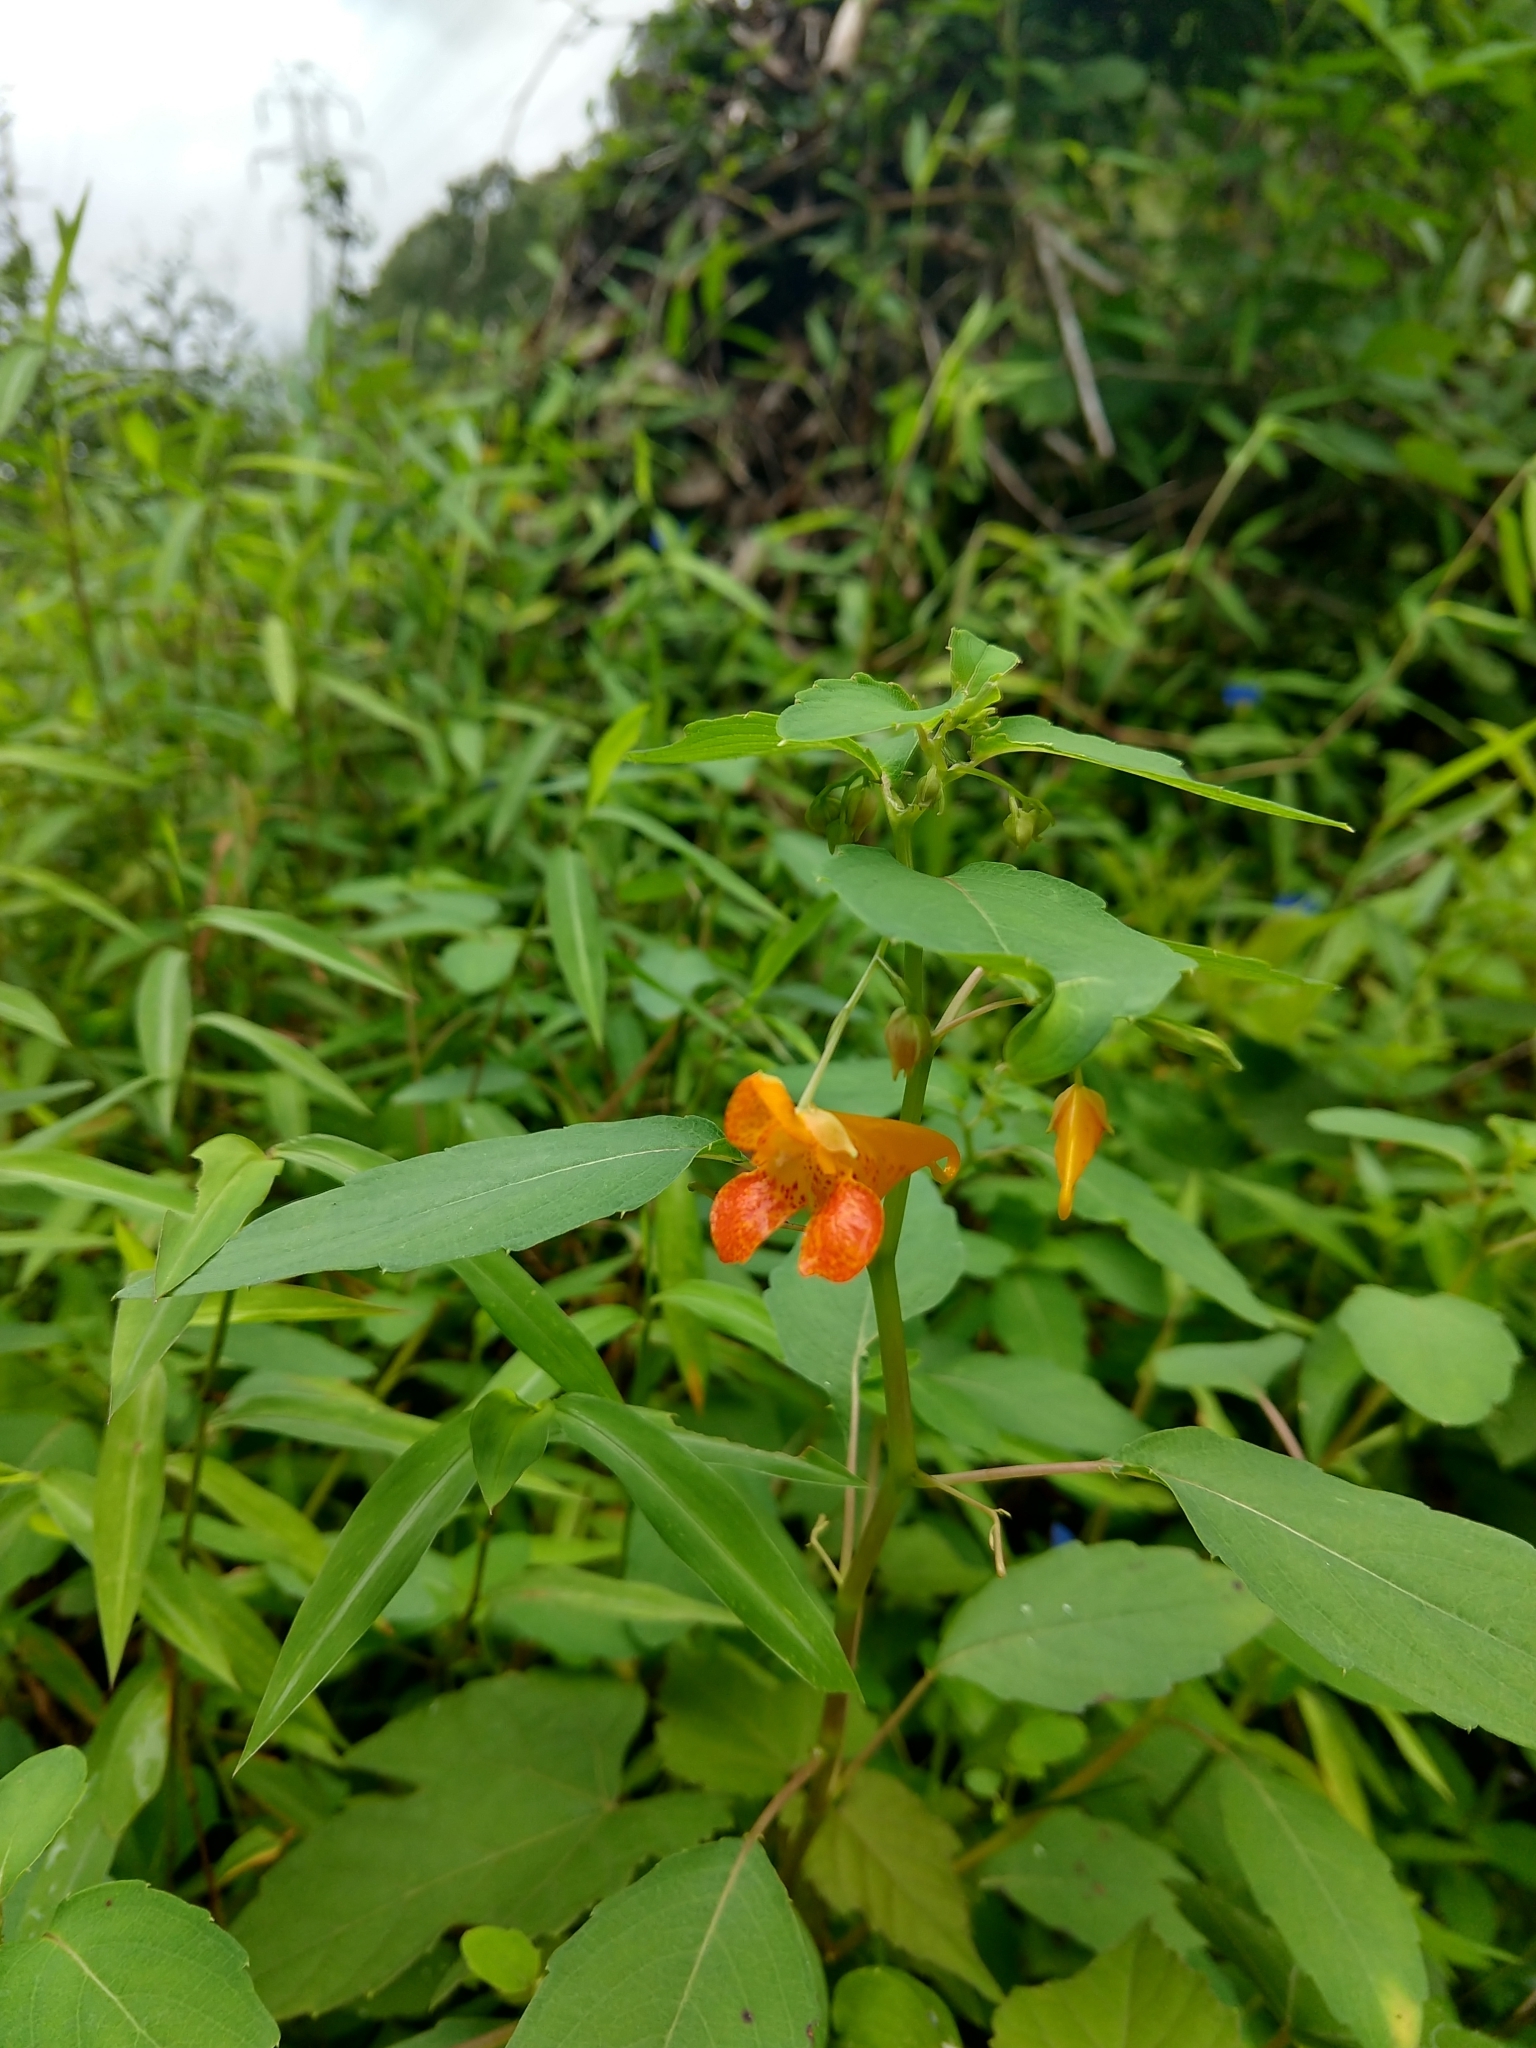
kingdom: Plantae
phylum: Tracheophyta
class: Magnoliopsida
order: Ericales
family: Balsaminaceae
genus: Impatiens
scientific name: Impatiens capensis
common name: Orange balsam
